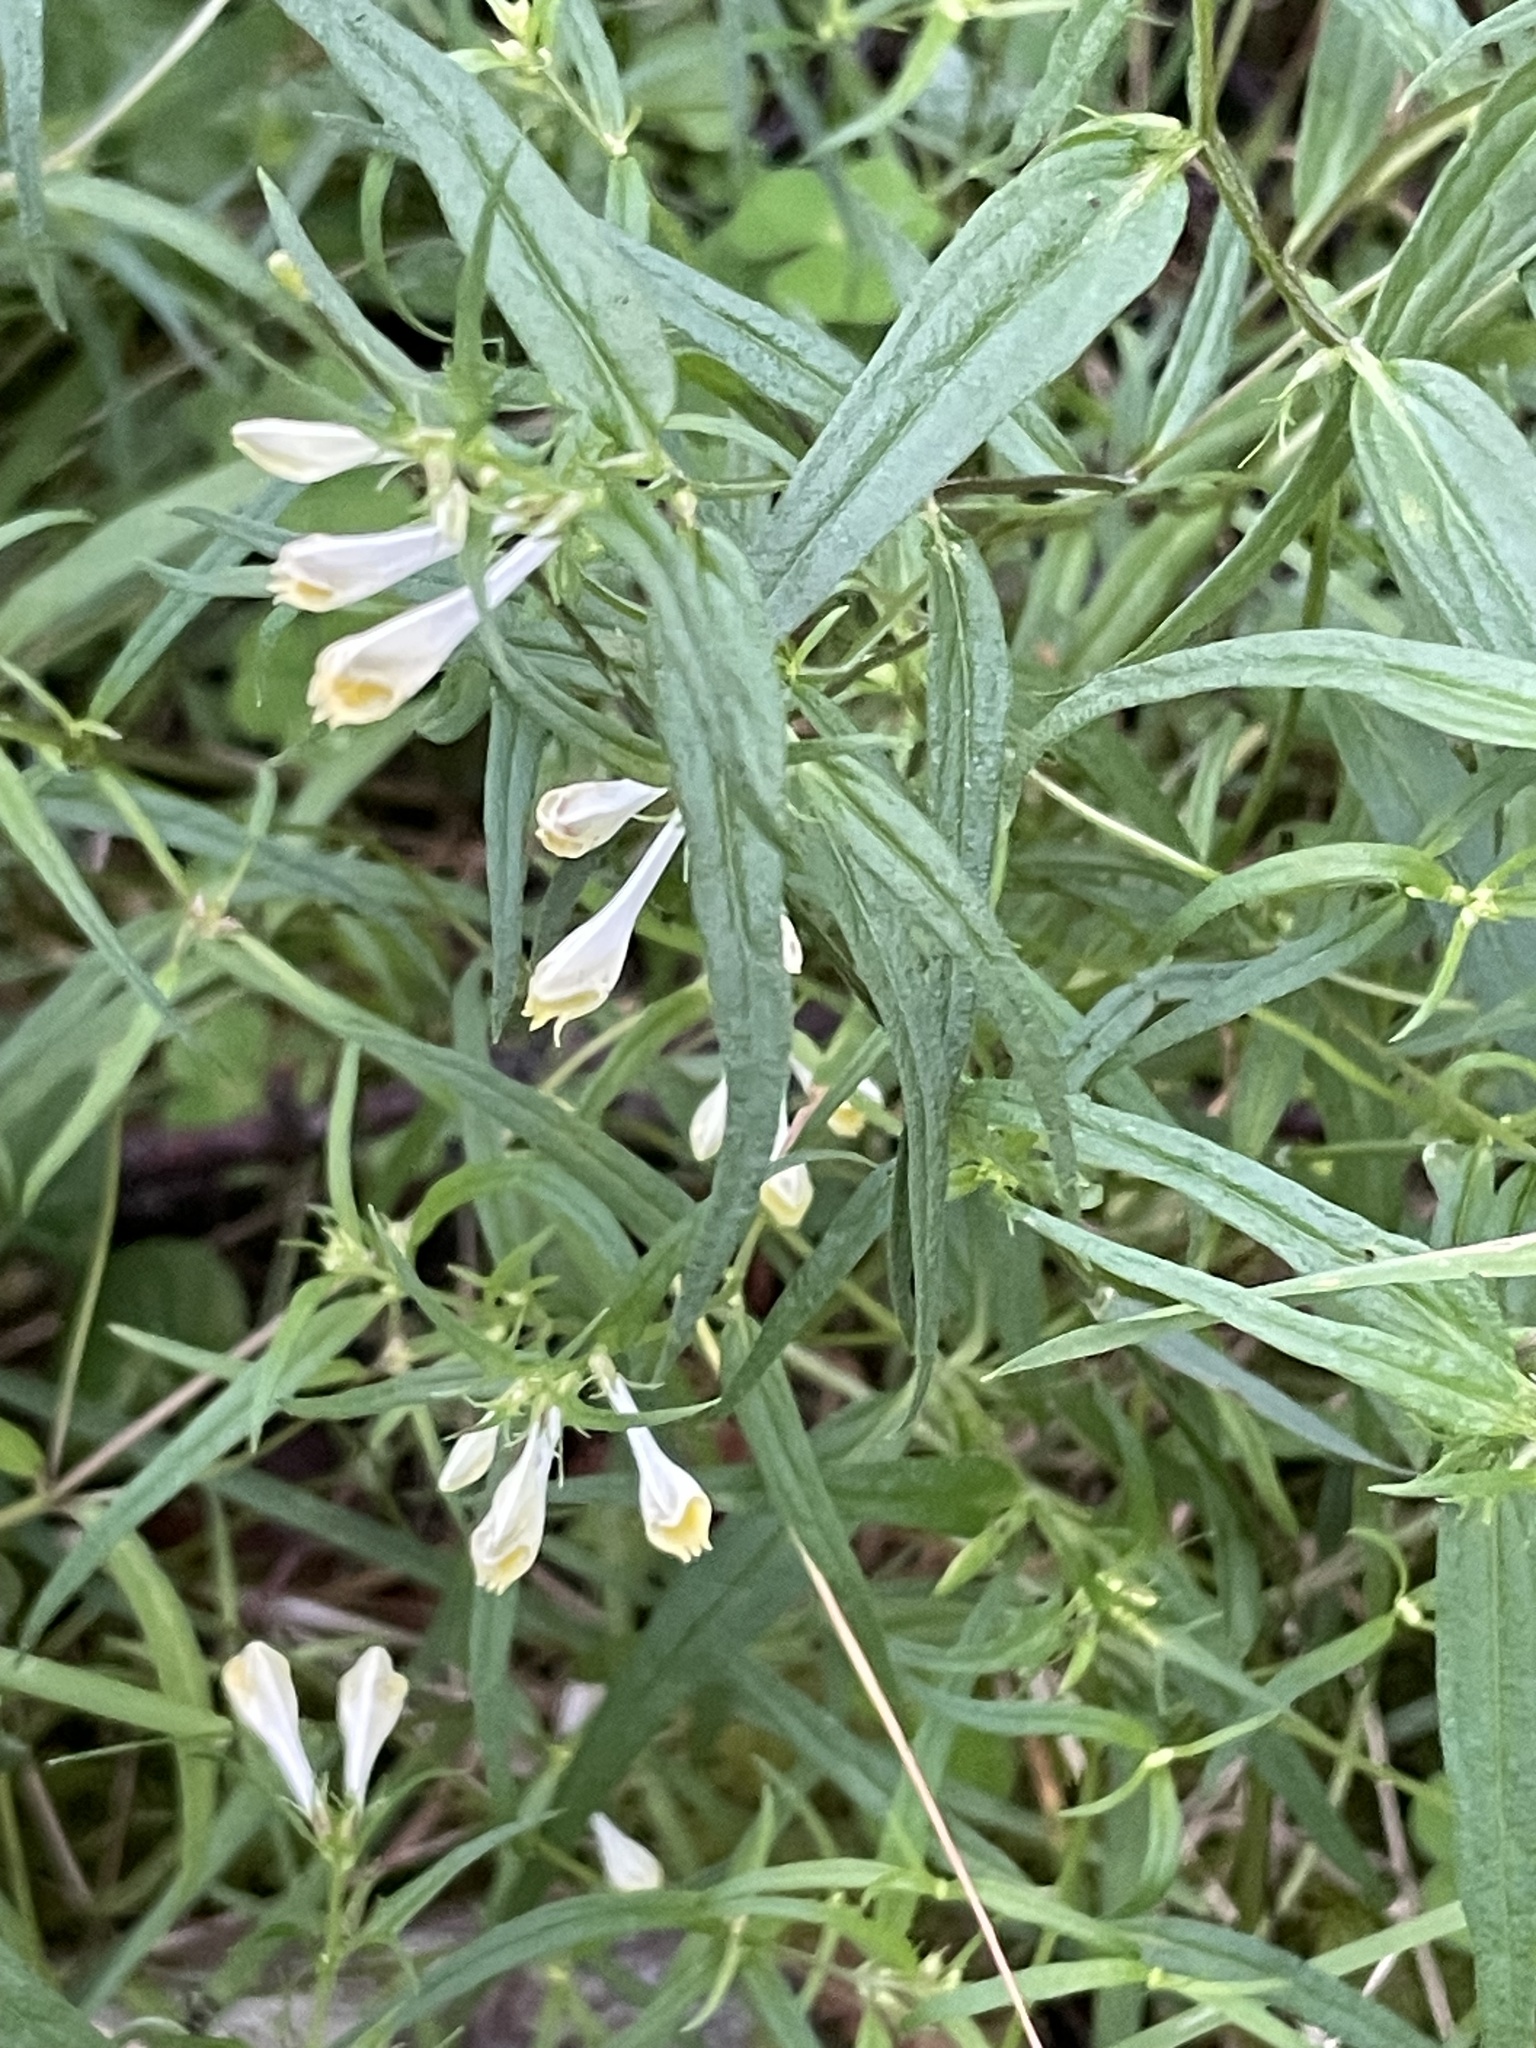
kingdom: Plantae
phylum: Tracheophyta
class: Magnoliopsida
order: Lamiales
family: Orobanchaceae
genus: Melampyrum
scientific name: Melampyrum pratense
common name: Common cow-wheat
